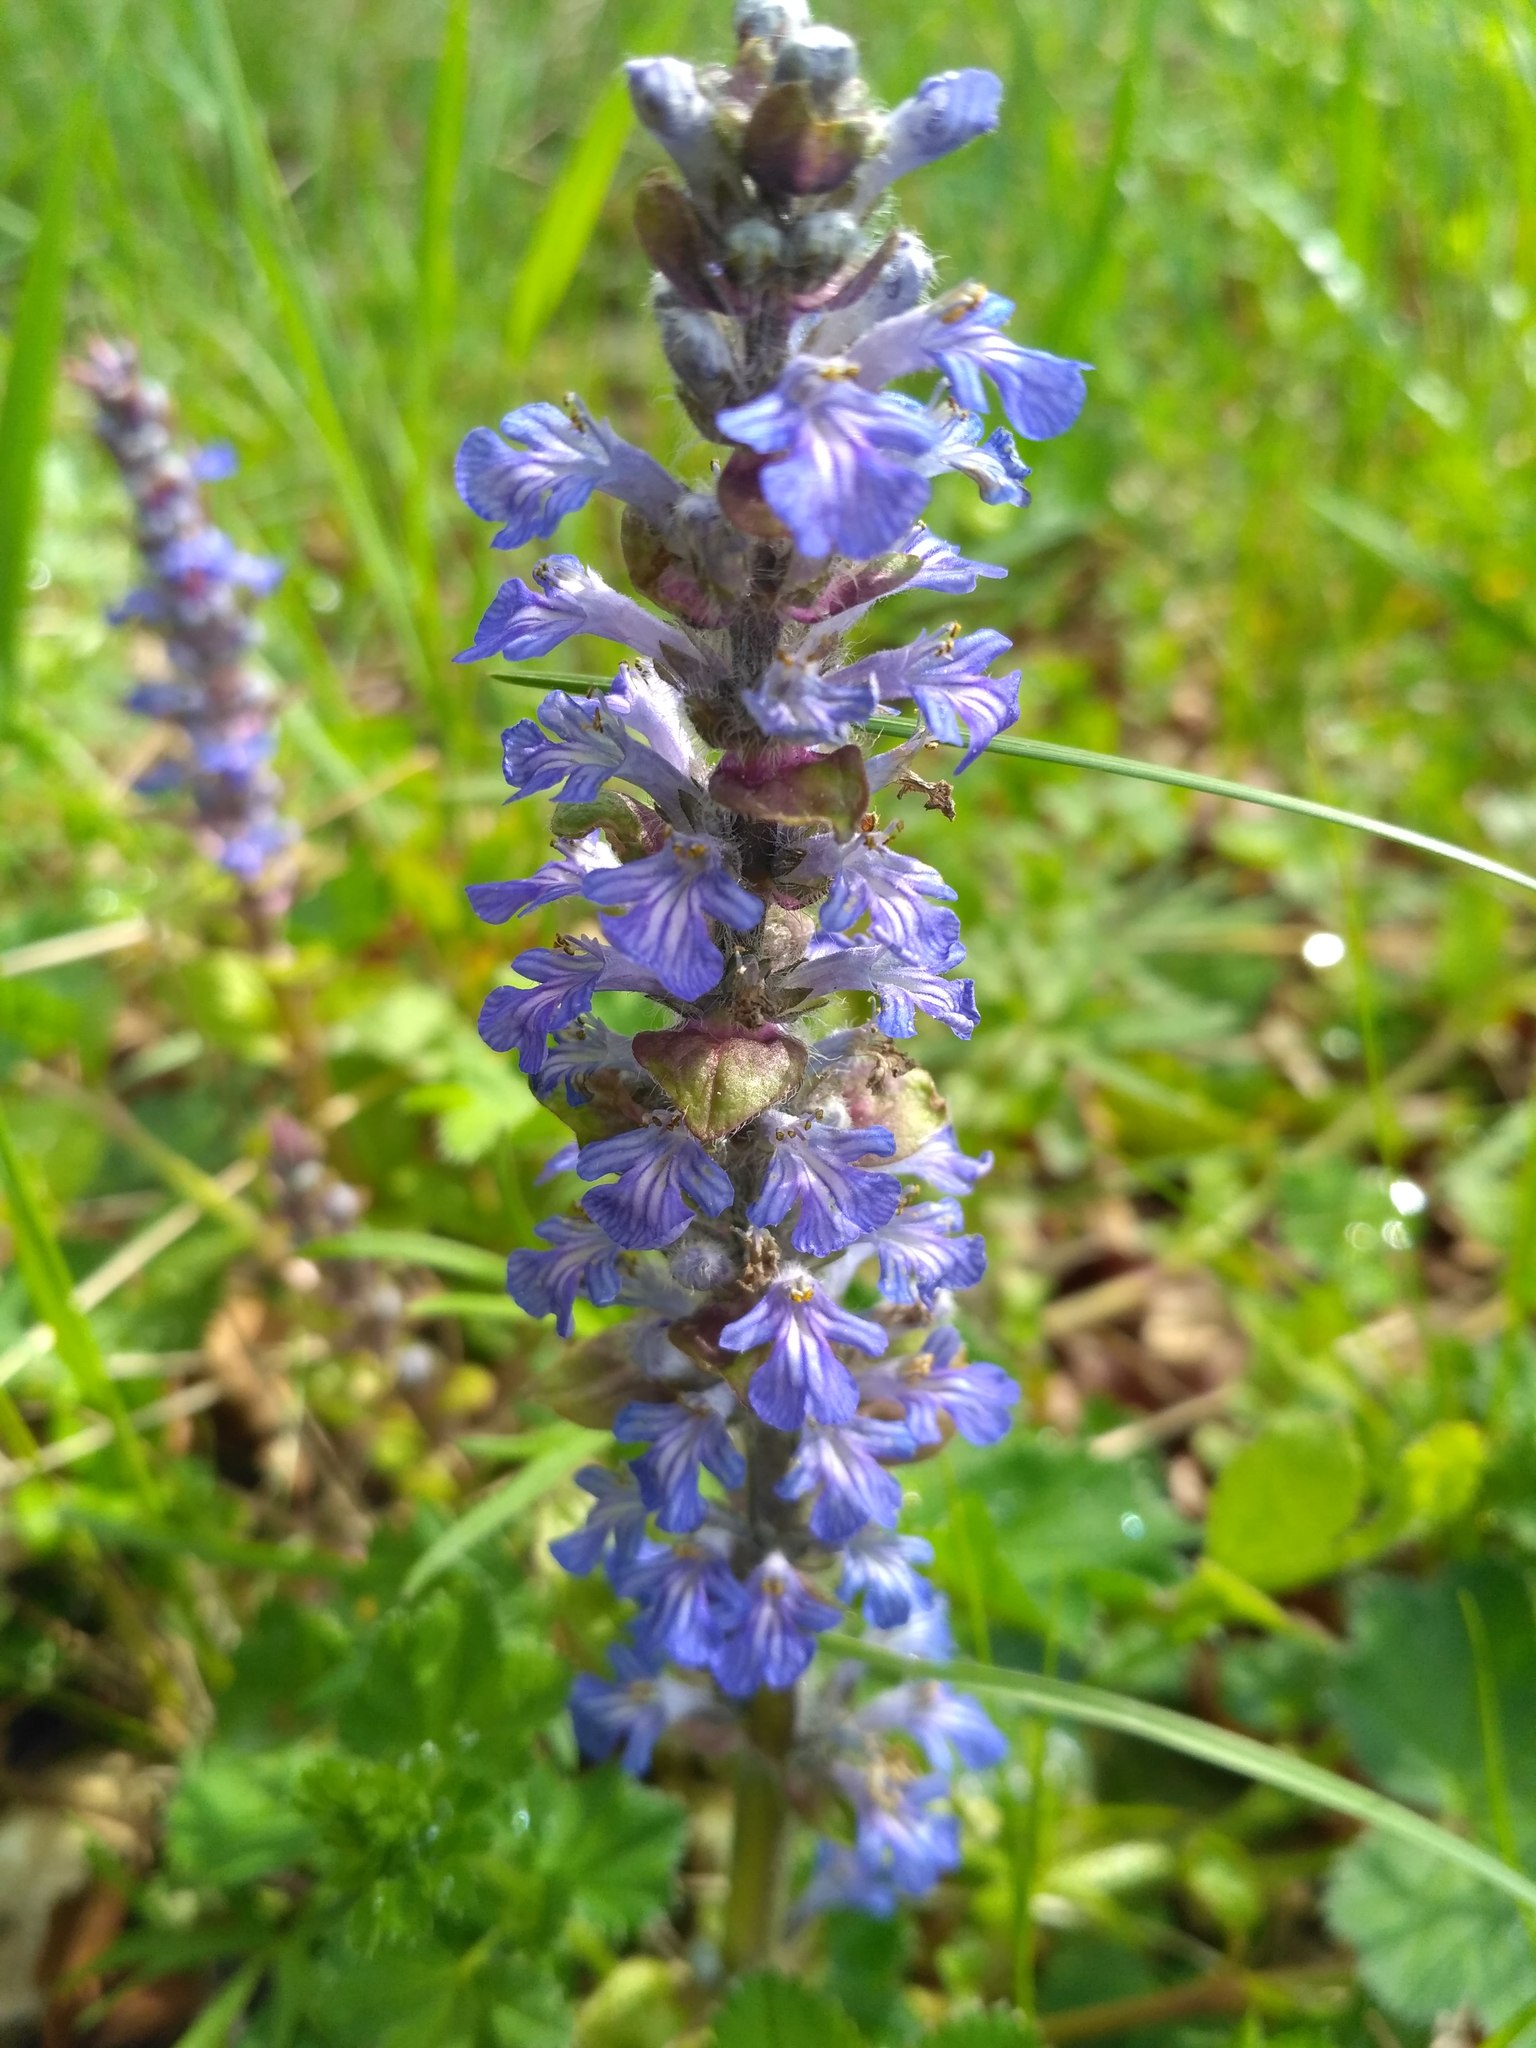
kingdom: Plantae
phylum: Tracheophyta
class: Magnoliopsida
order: Lamiales
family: Lamiaceae
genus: Ajuga
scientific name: Ajuga reptans
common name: Bugle
